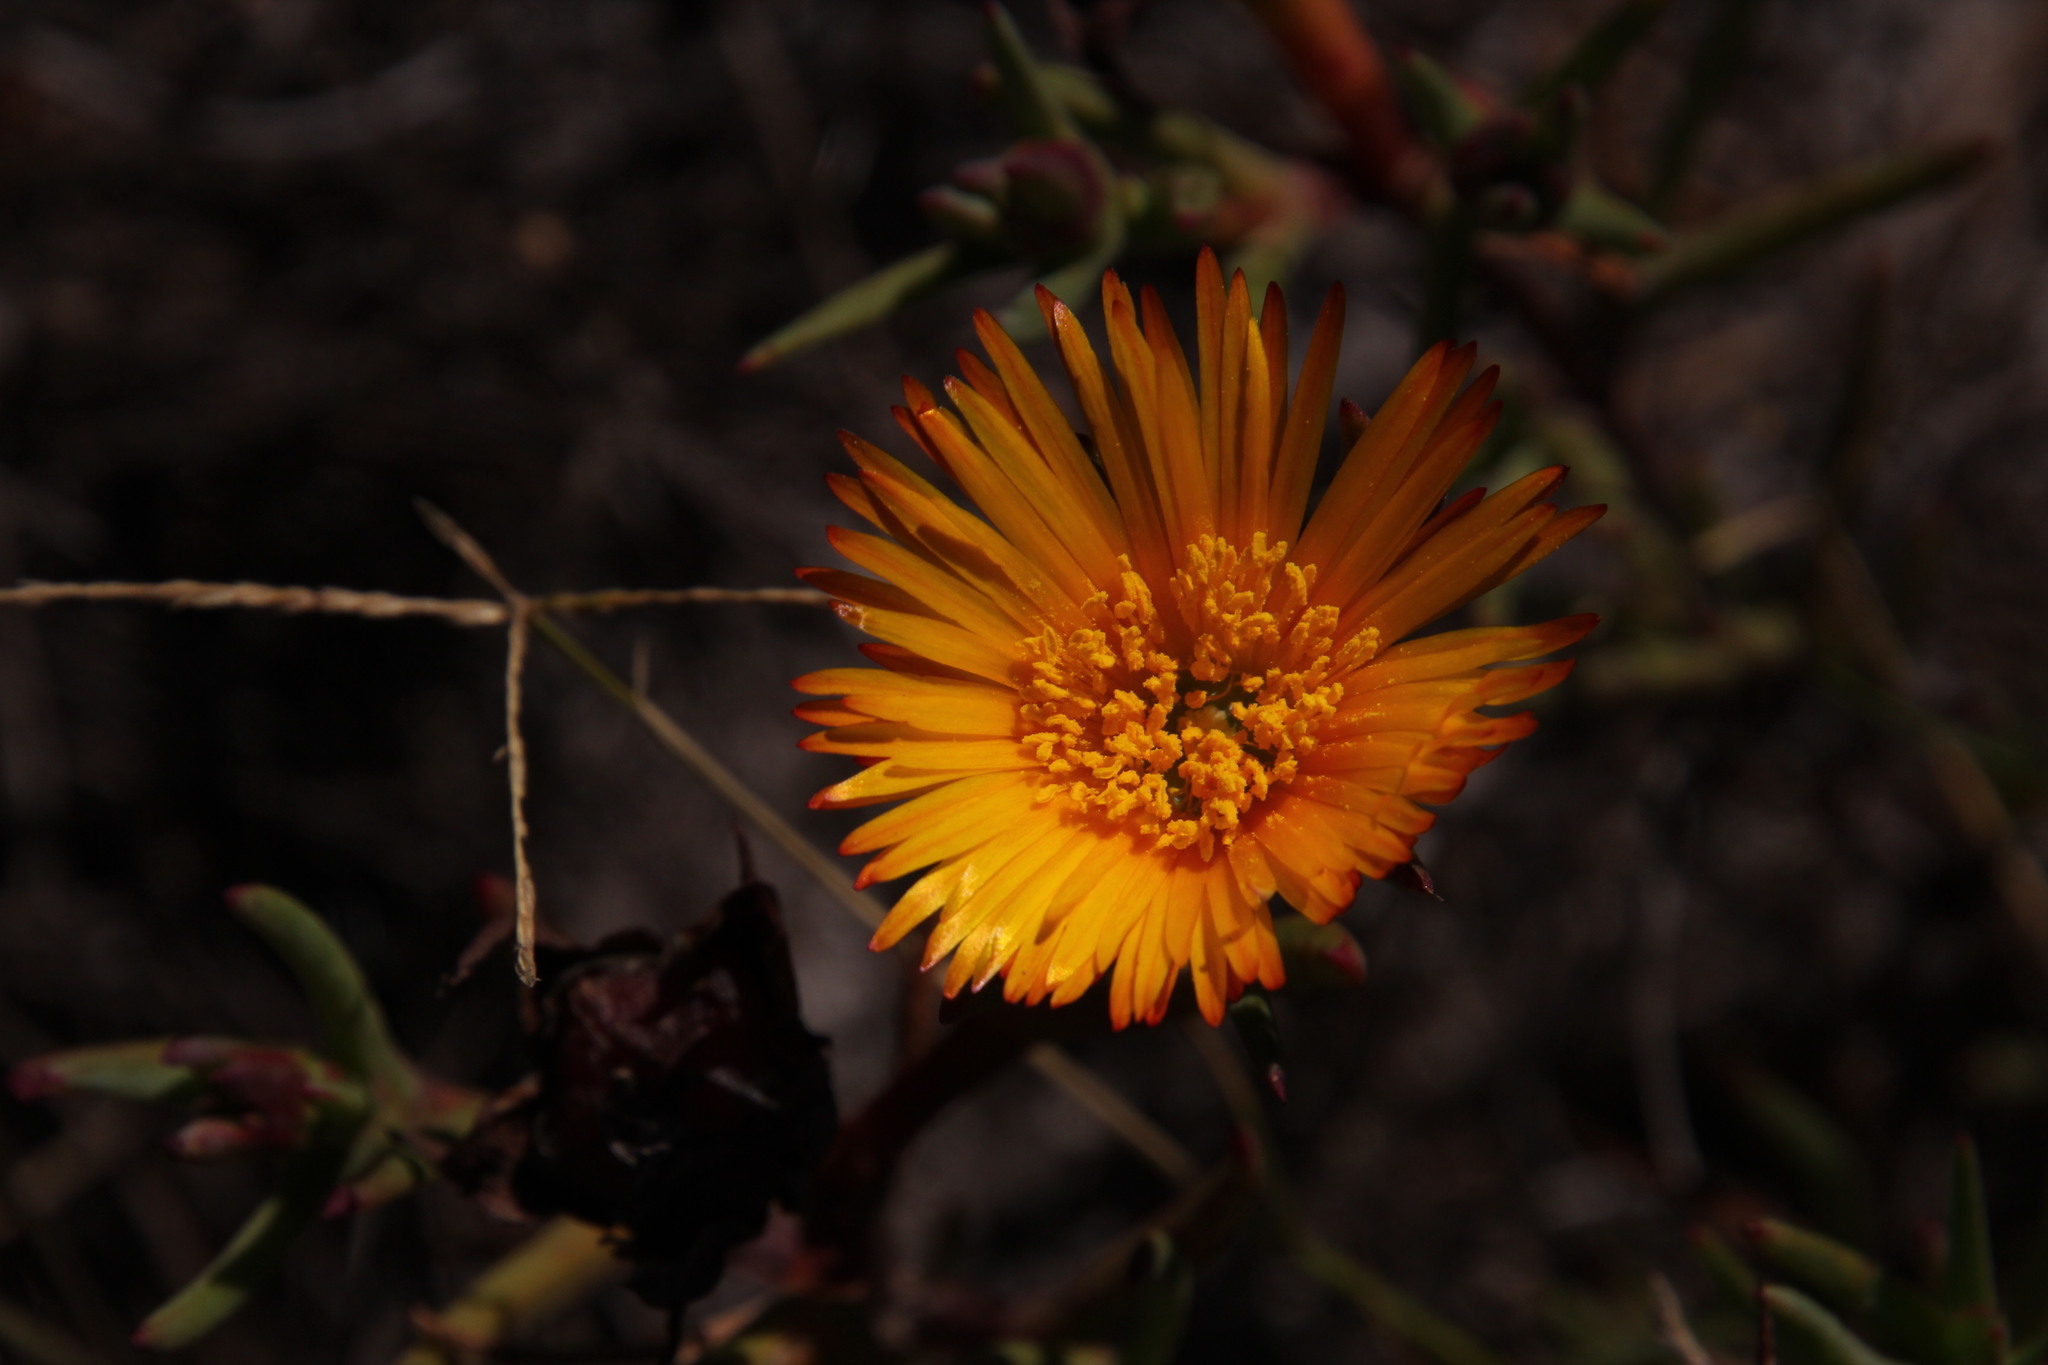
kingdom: Plantae
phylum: Tracheophyta
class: Magnoliopsida
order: Caryophyllales
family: Aizoaceae
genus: Lampranthus
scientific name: Lampranthus bicolor
